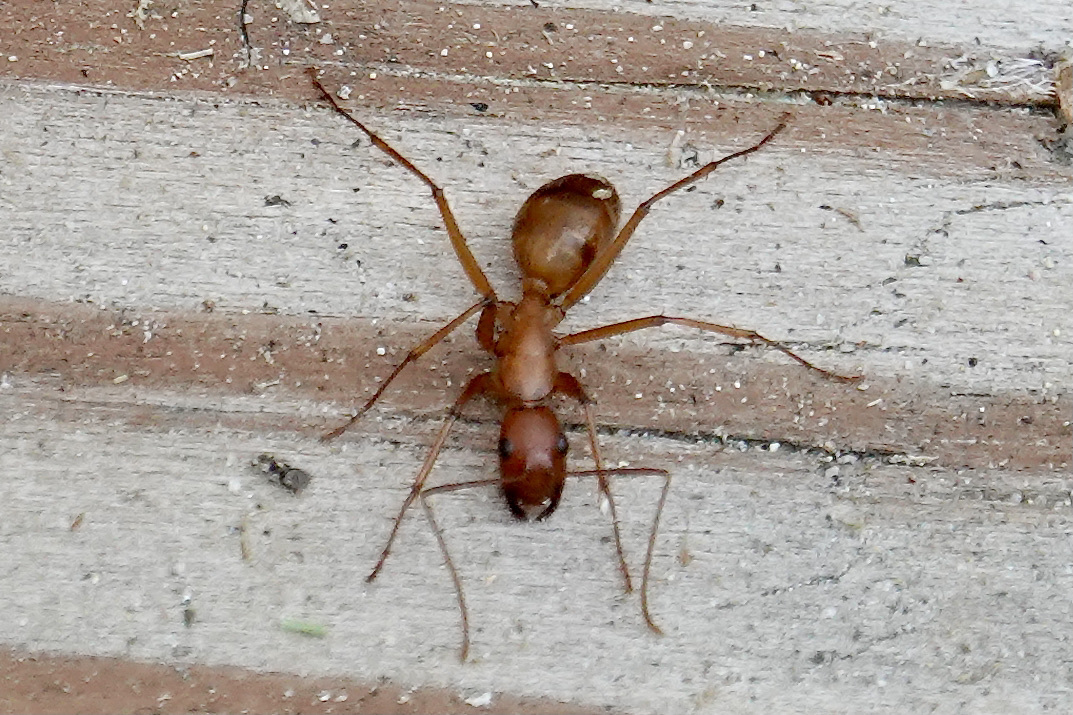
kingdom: Animalia
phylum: Arthropoda
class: Insecta
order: Hymenoptera
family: Formicidae
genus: Camponotus
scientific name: Camponotus castaneus
